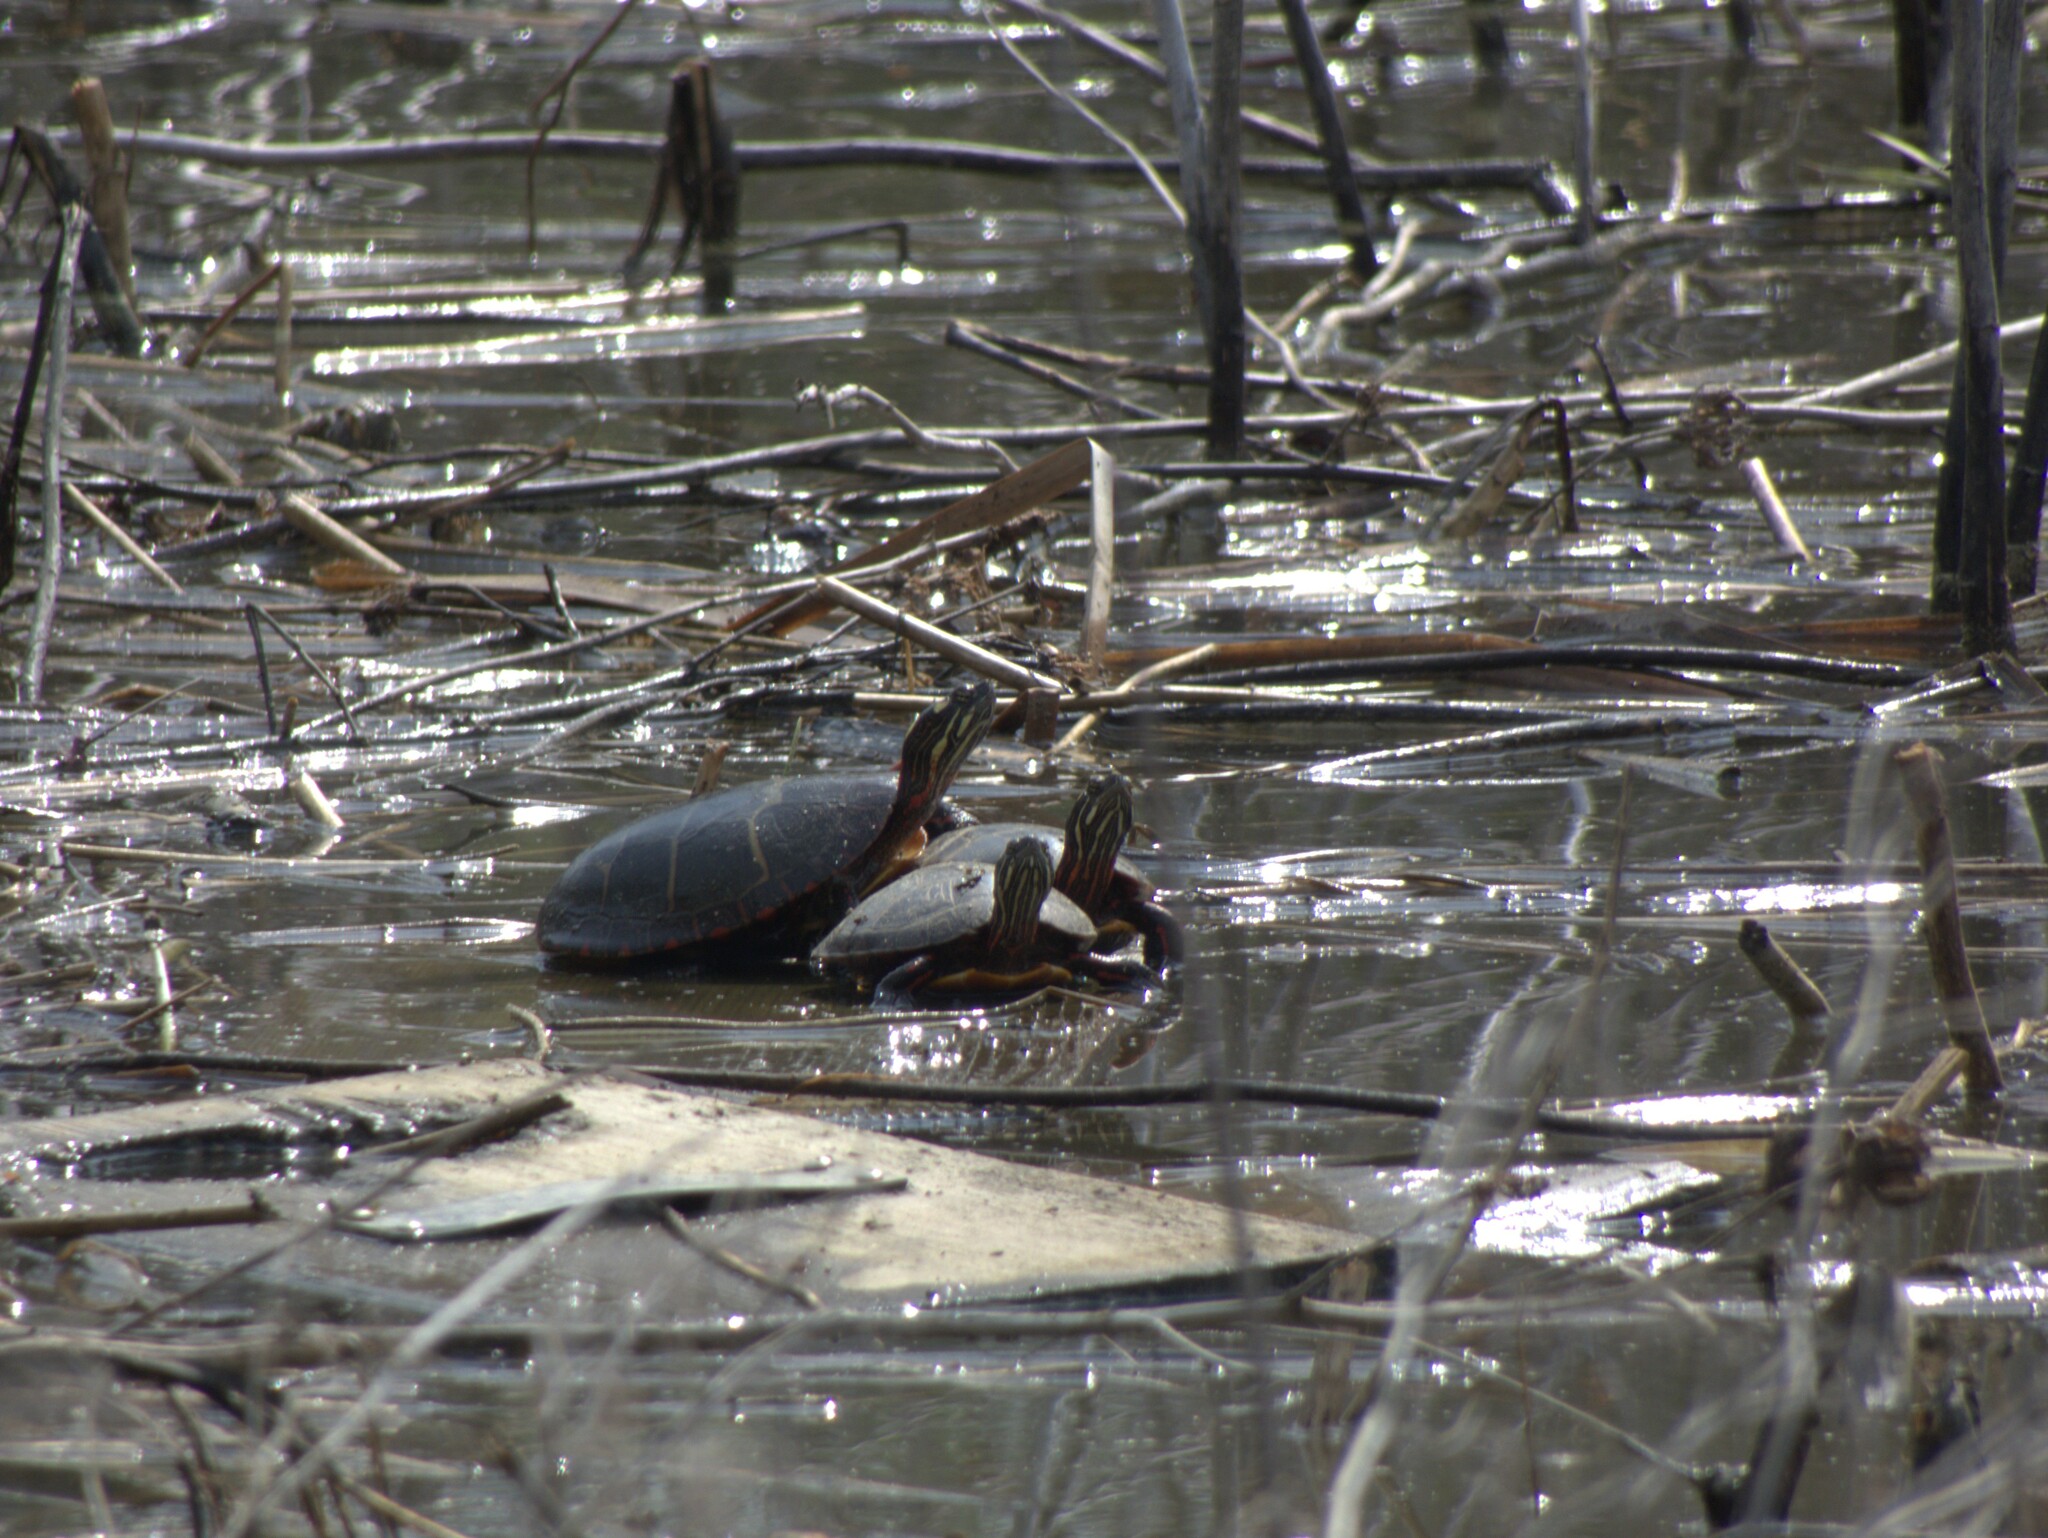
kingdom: Animalia
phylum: Chordata
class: Testudines
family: Emydidae
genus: Chrysemys
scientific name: Chrysemys picta
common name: Painted turtle
